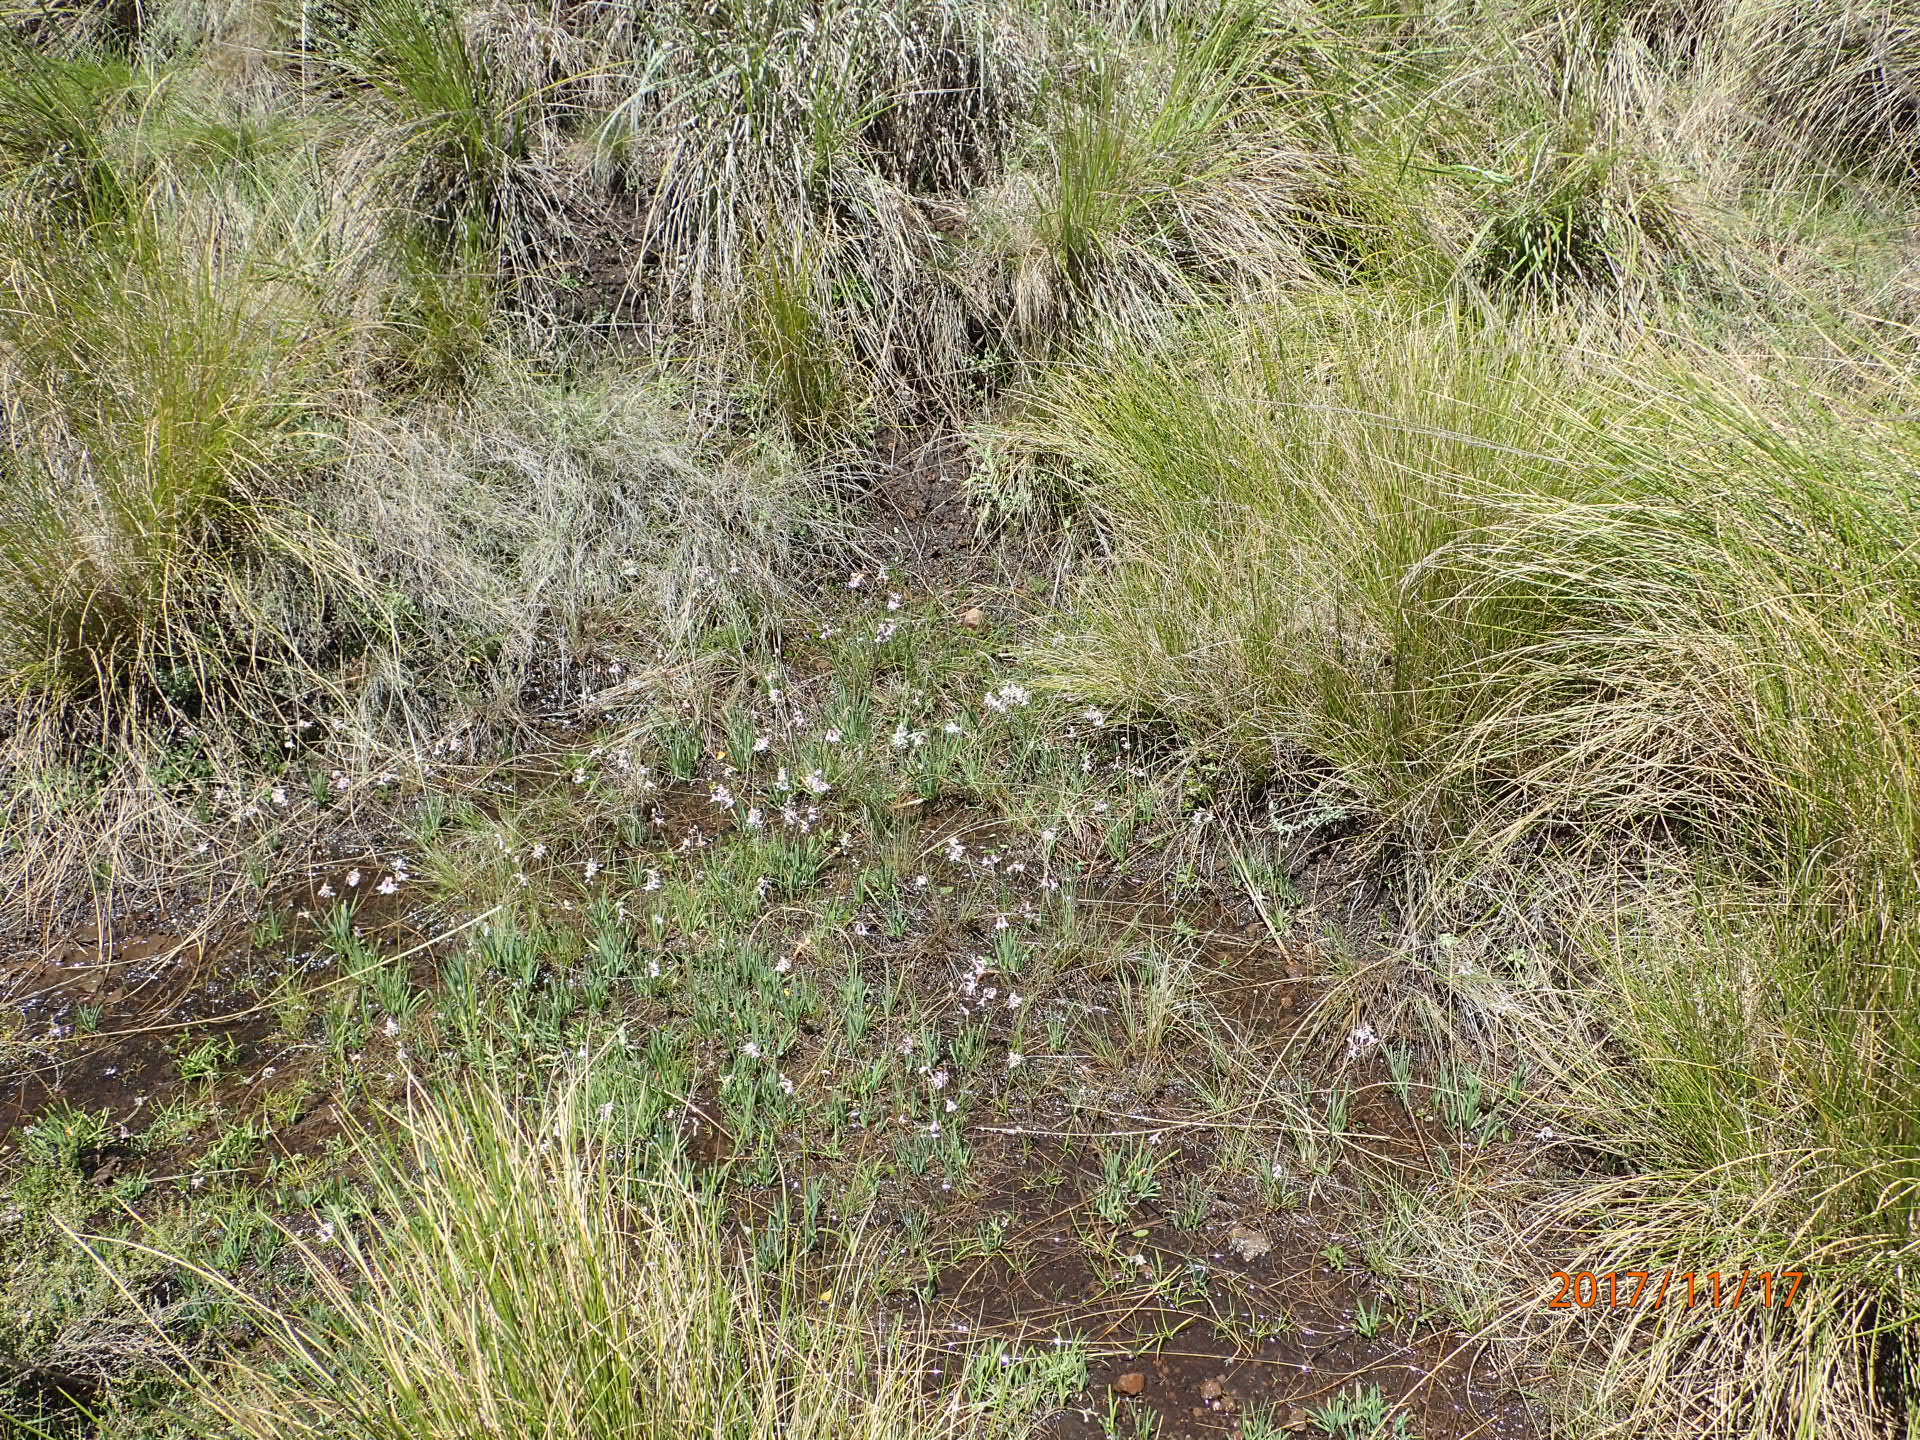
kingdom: Plantae
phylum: Tracheophyta
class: Liliopsida
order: Asparagales
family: Amaryllidaceae
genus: Tulbaghia
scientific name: Tulbaghia leucantha
